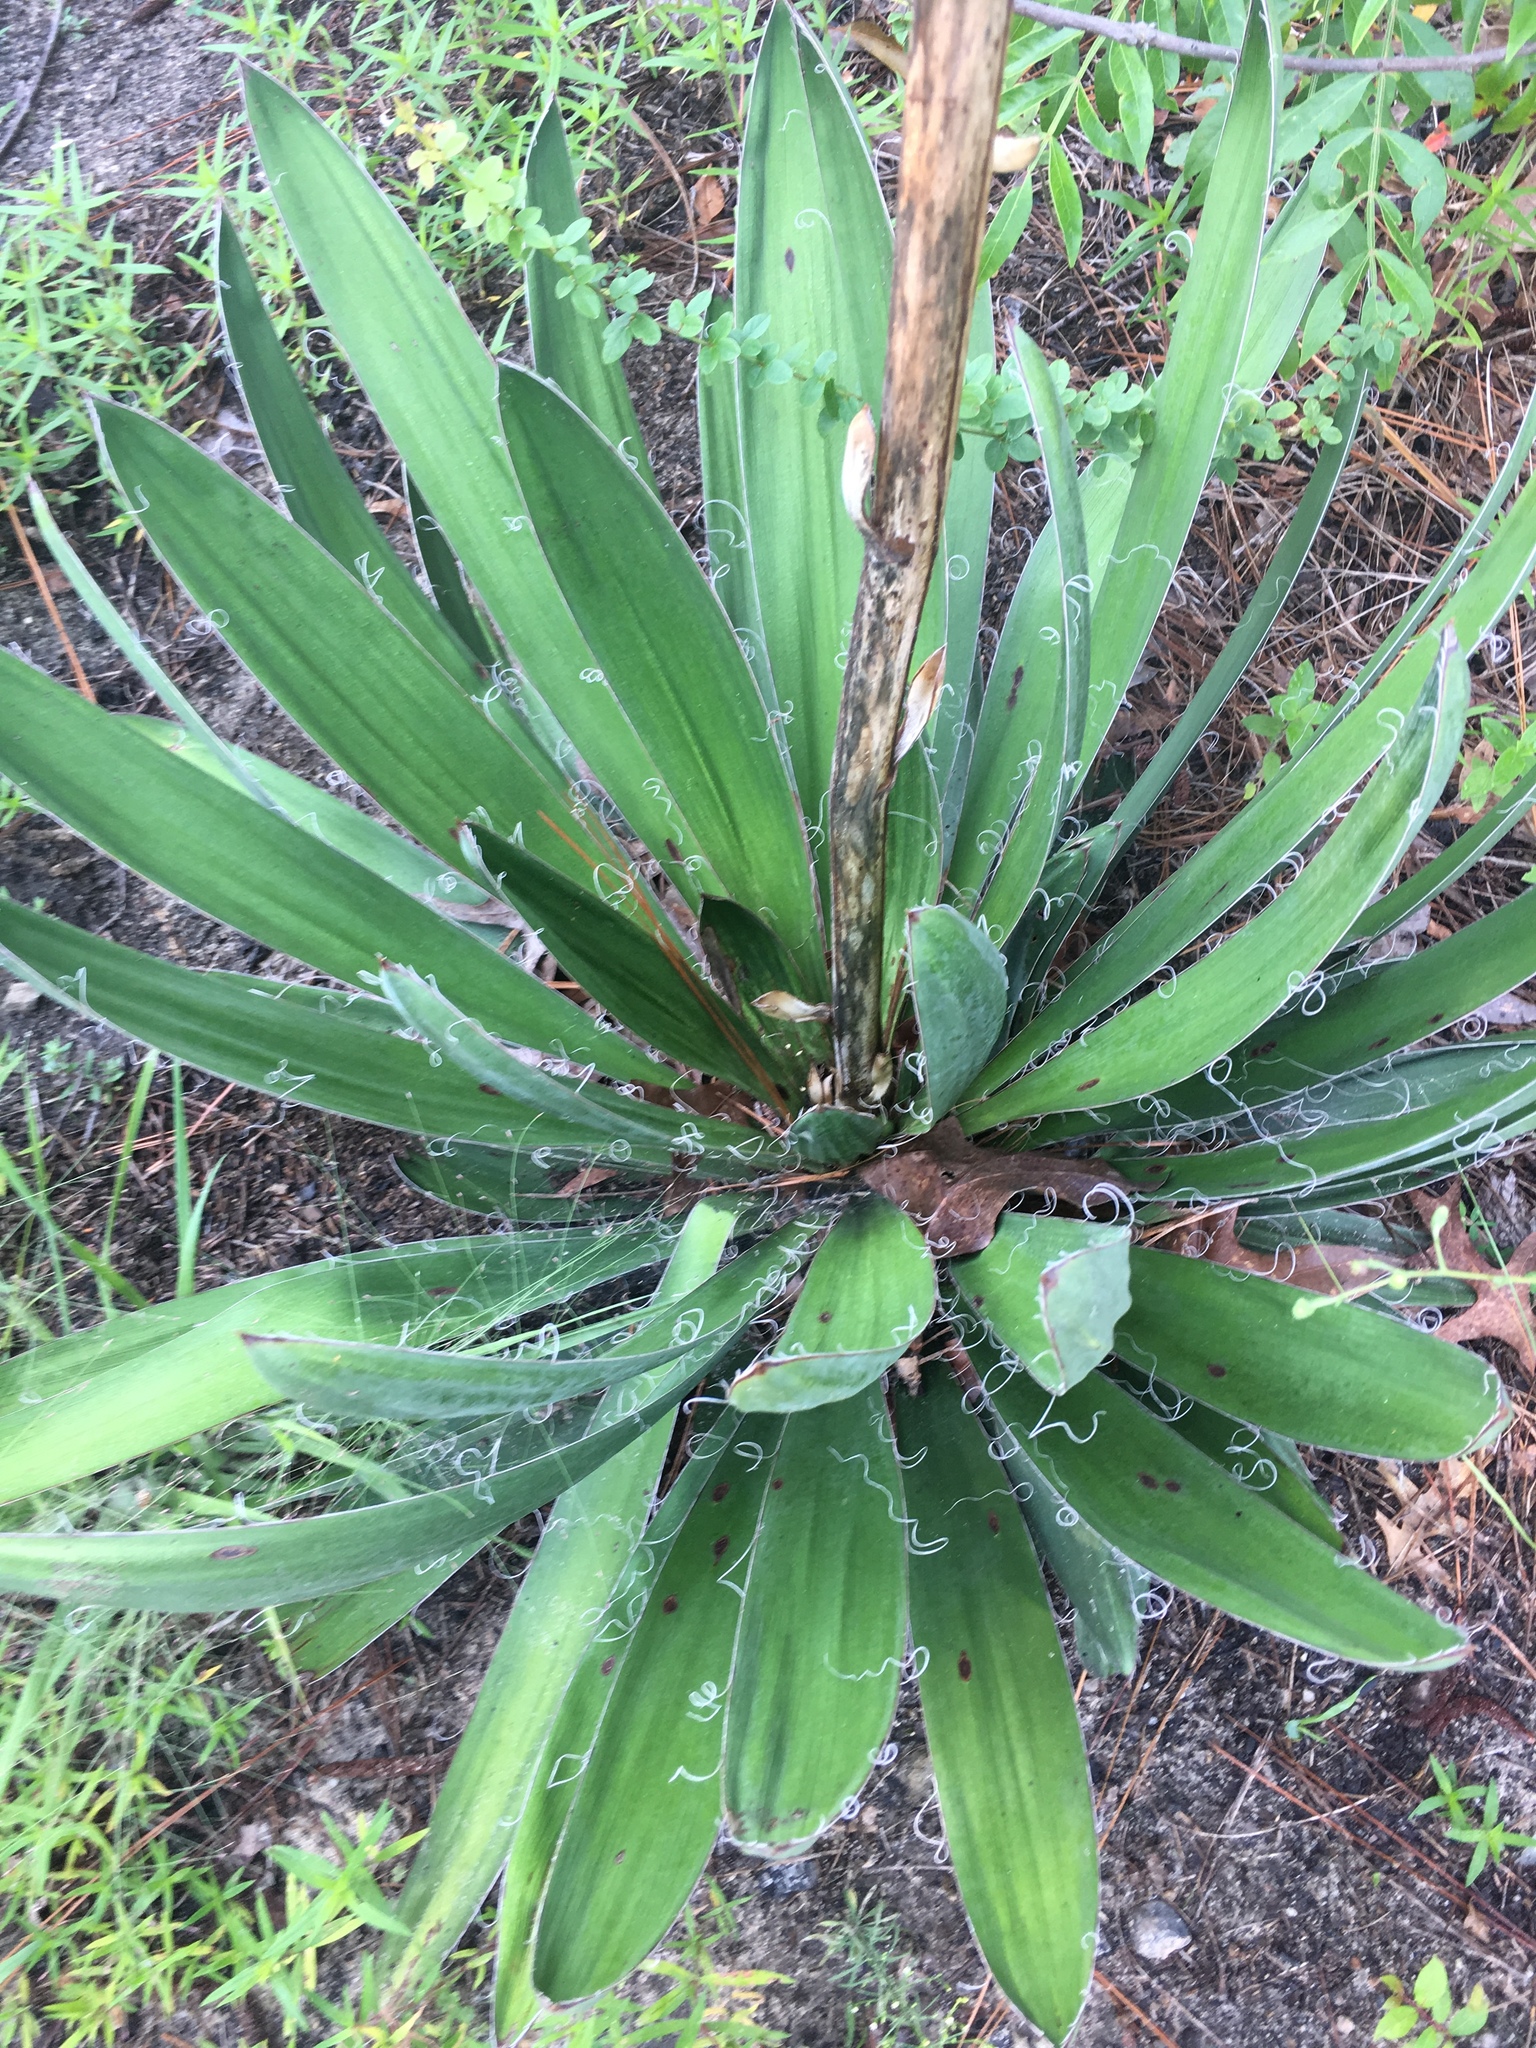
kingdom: Plantae
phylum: Tracheophyta
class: Liliopsida
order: Asparagales
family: Asparagaceae
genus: Yucca
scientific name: Yucca filamentosa
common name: Adam's-needle
